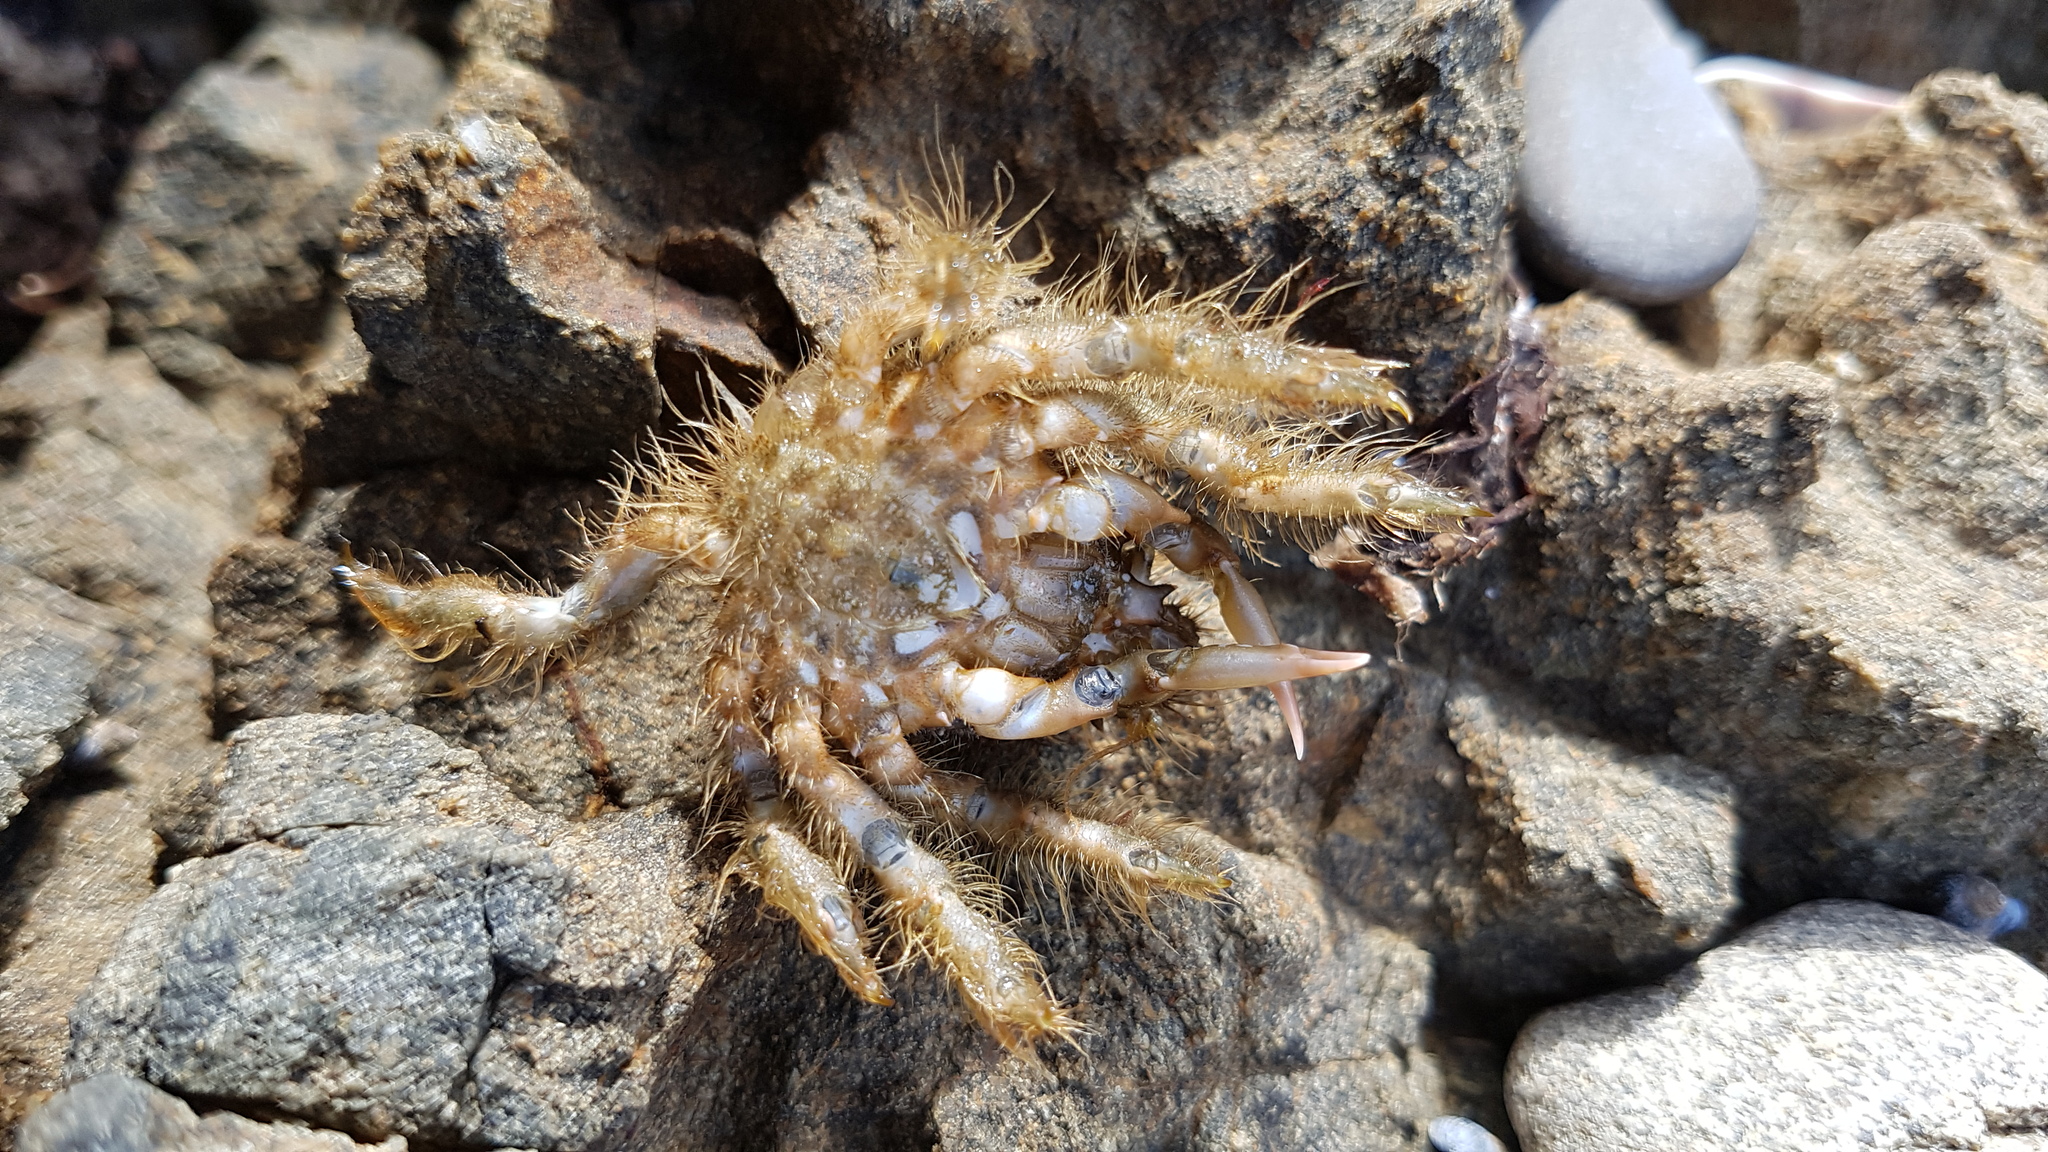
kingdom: Animalia
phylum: Arthropoda
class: Malacostraca
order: Decapoda
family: Majidae
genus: Notomithrax
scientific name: Notomithrax ursus
